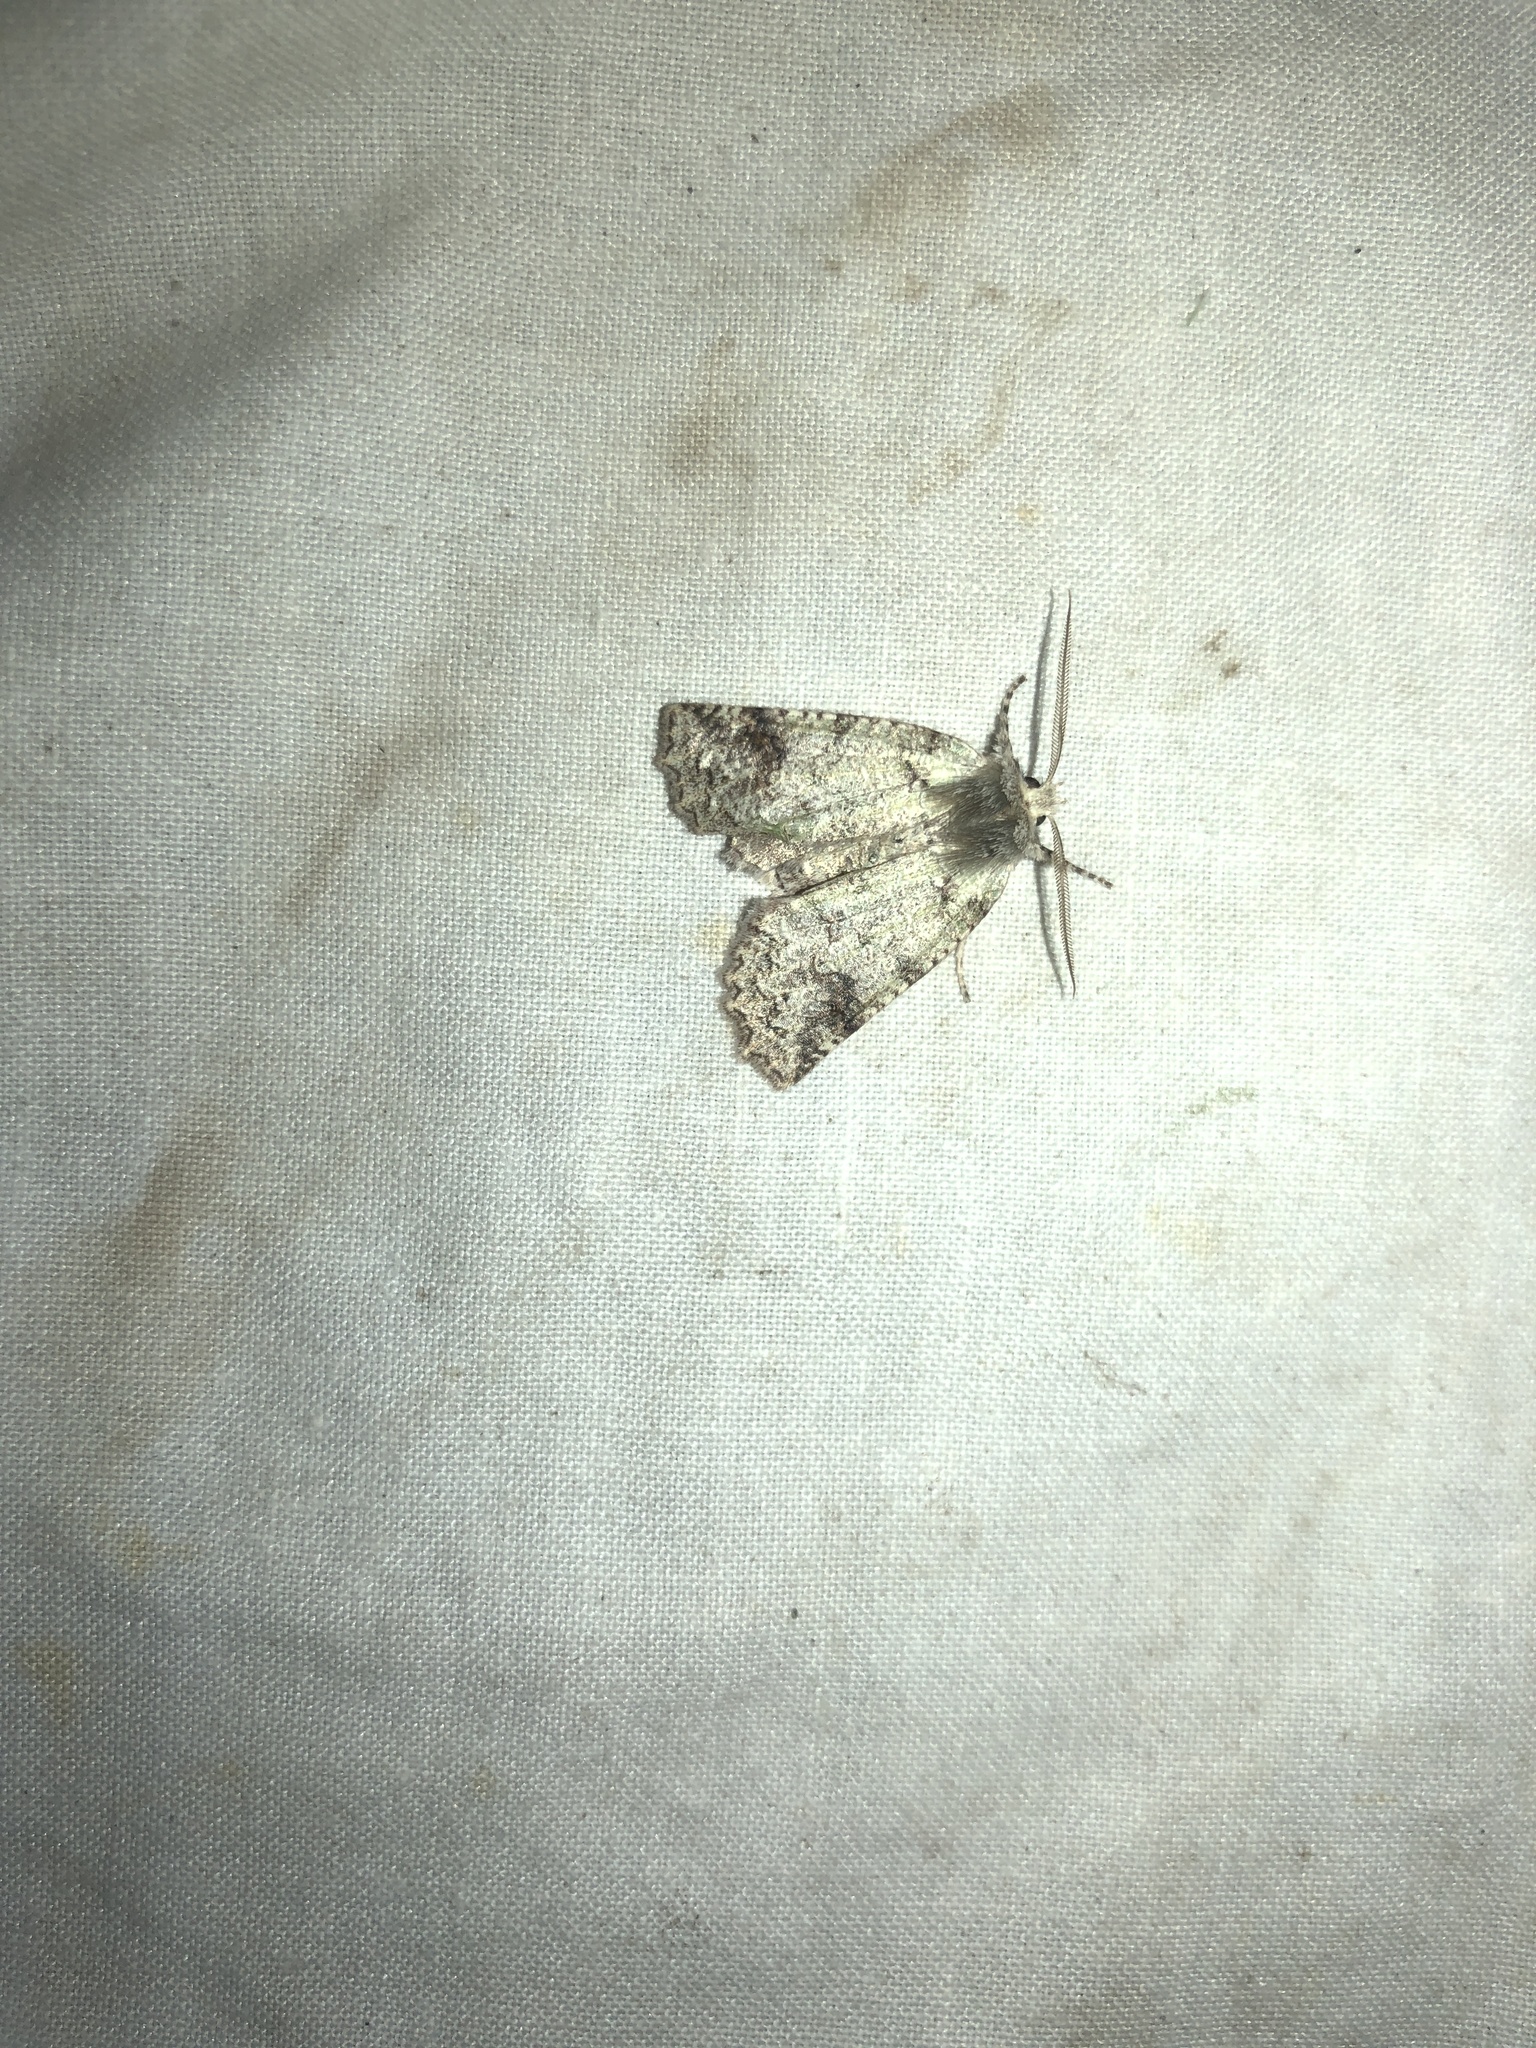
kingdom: Animalia
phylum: Arthropoda
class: Insecta
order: Lepidoptera
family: Geometridae
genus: Declana
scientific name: Declana floccosa
